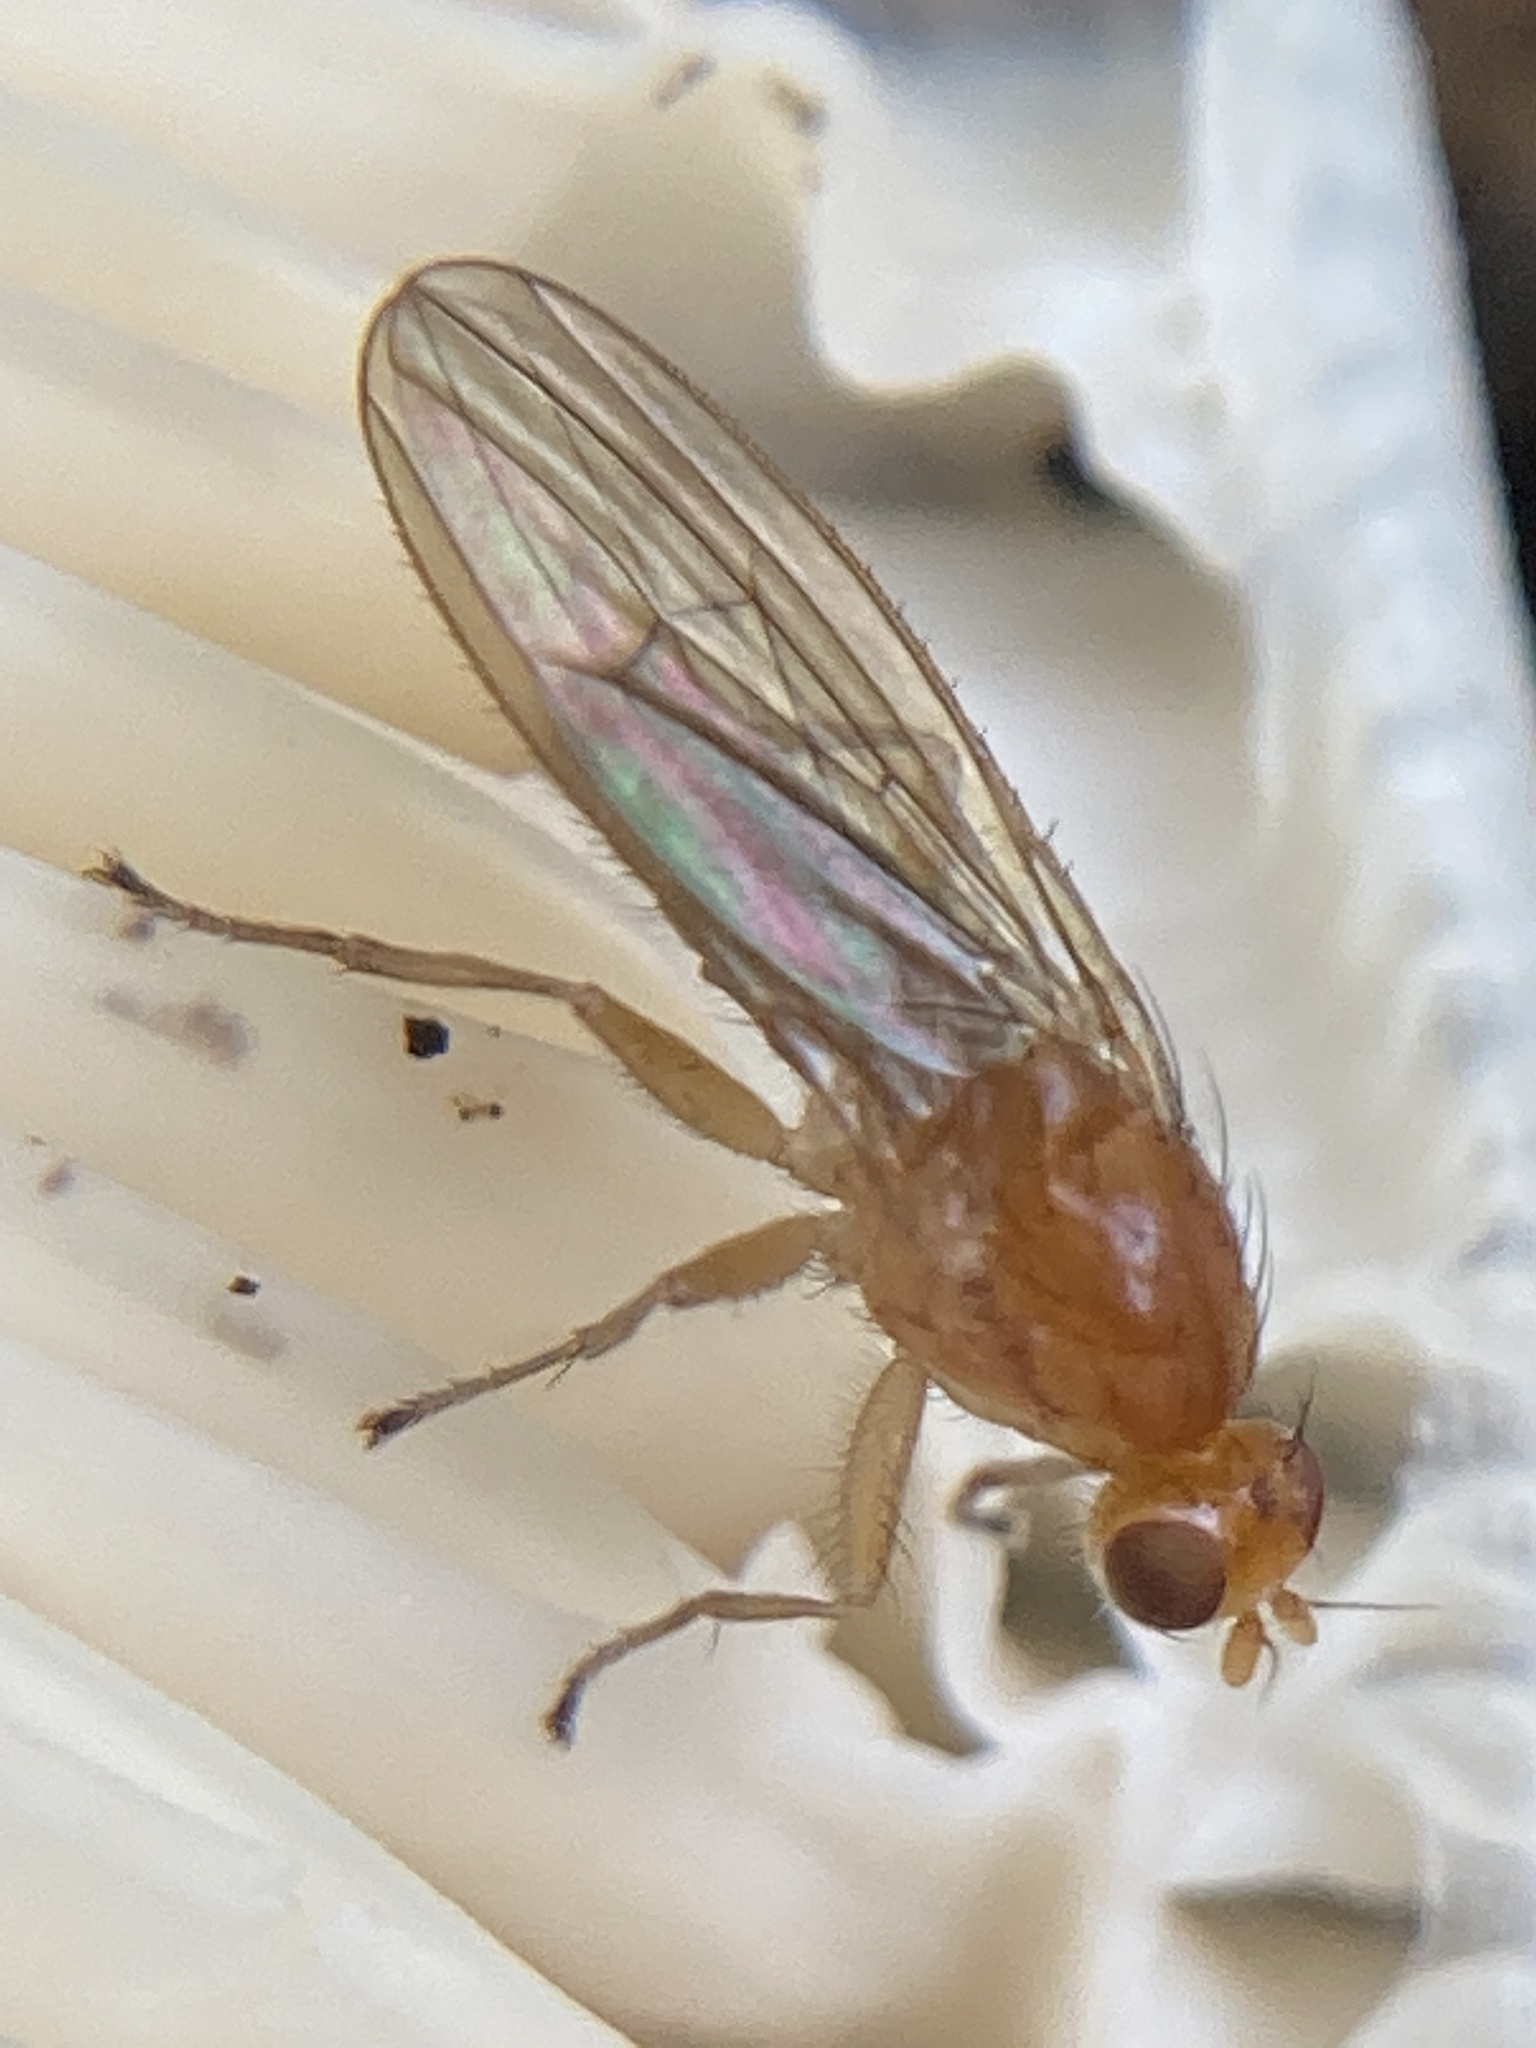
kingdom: Animalia
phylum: Arthropoda
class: Insecta
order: Diptera
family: Heleomyzidae
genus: Allophyla
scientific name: Allophyla laevis
